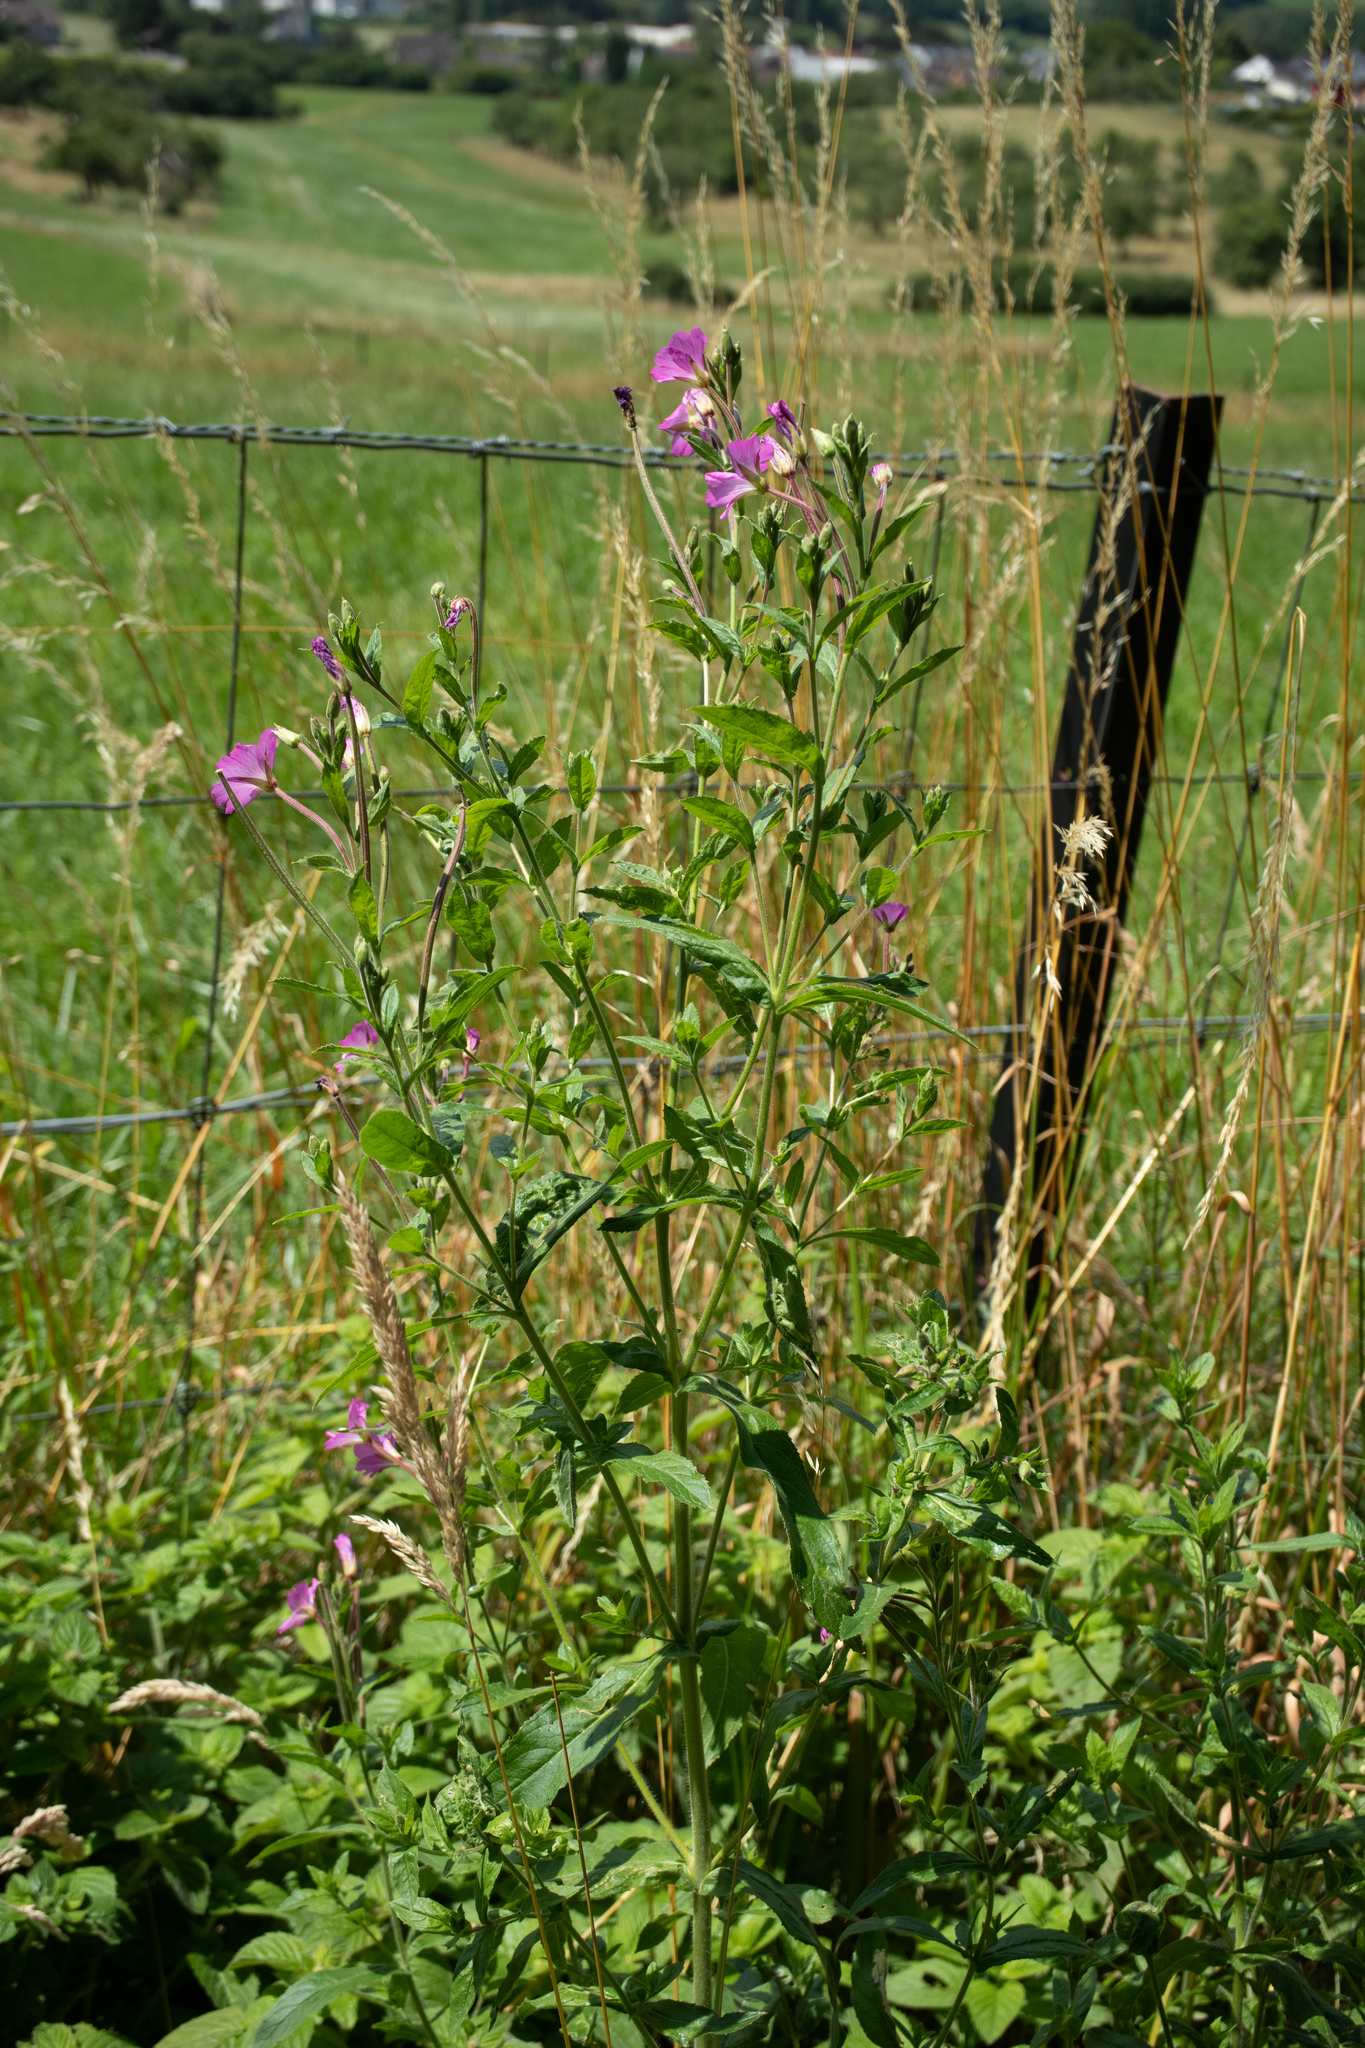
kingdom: Plantae
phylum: Tracheophyta
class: Magnoliopsida
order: Myrtales
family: Onagraceae
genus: Epilobium
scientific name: Epilobium hirsutum
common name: Great willowherb
